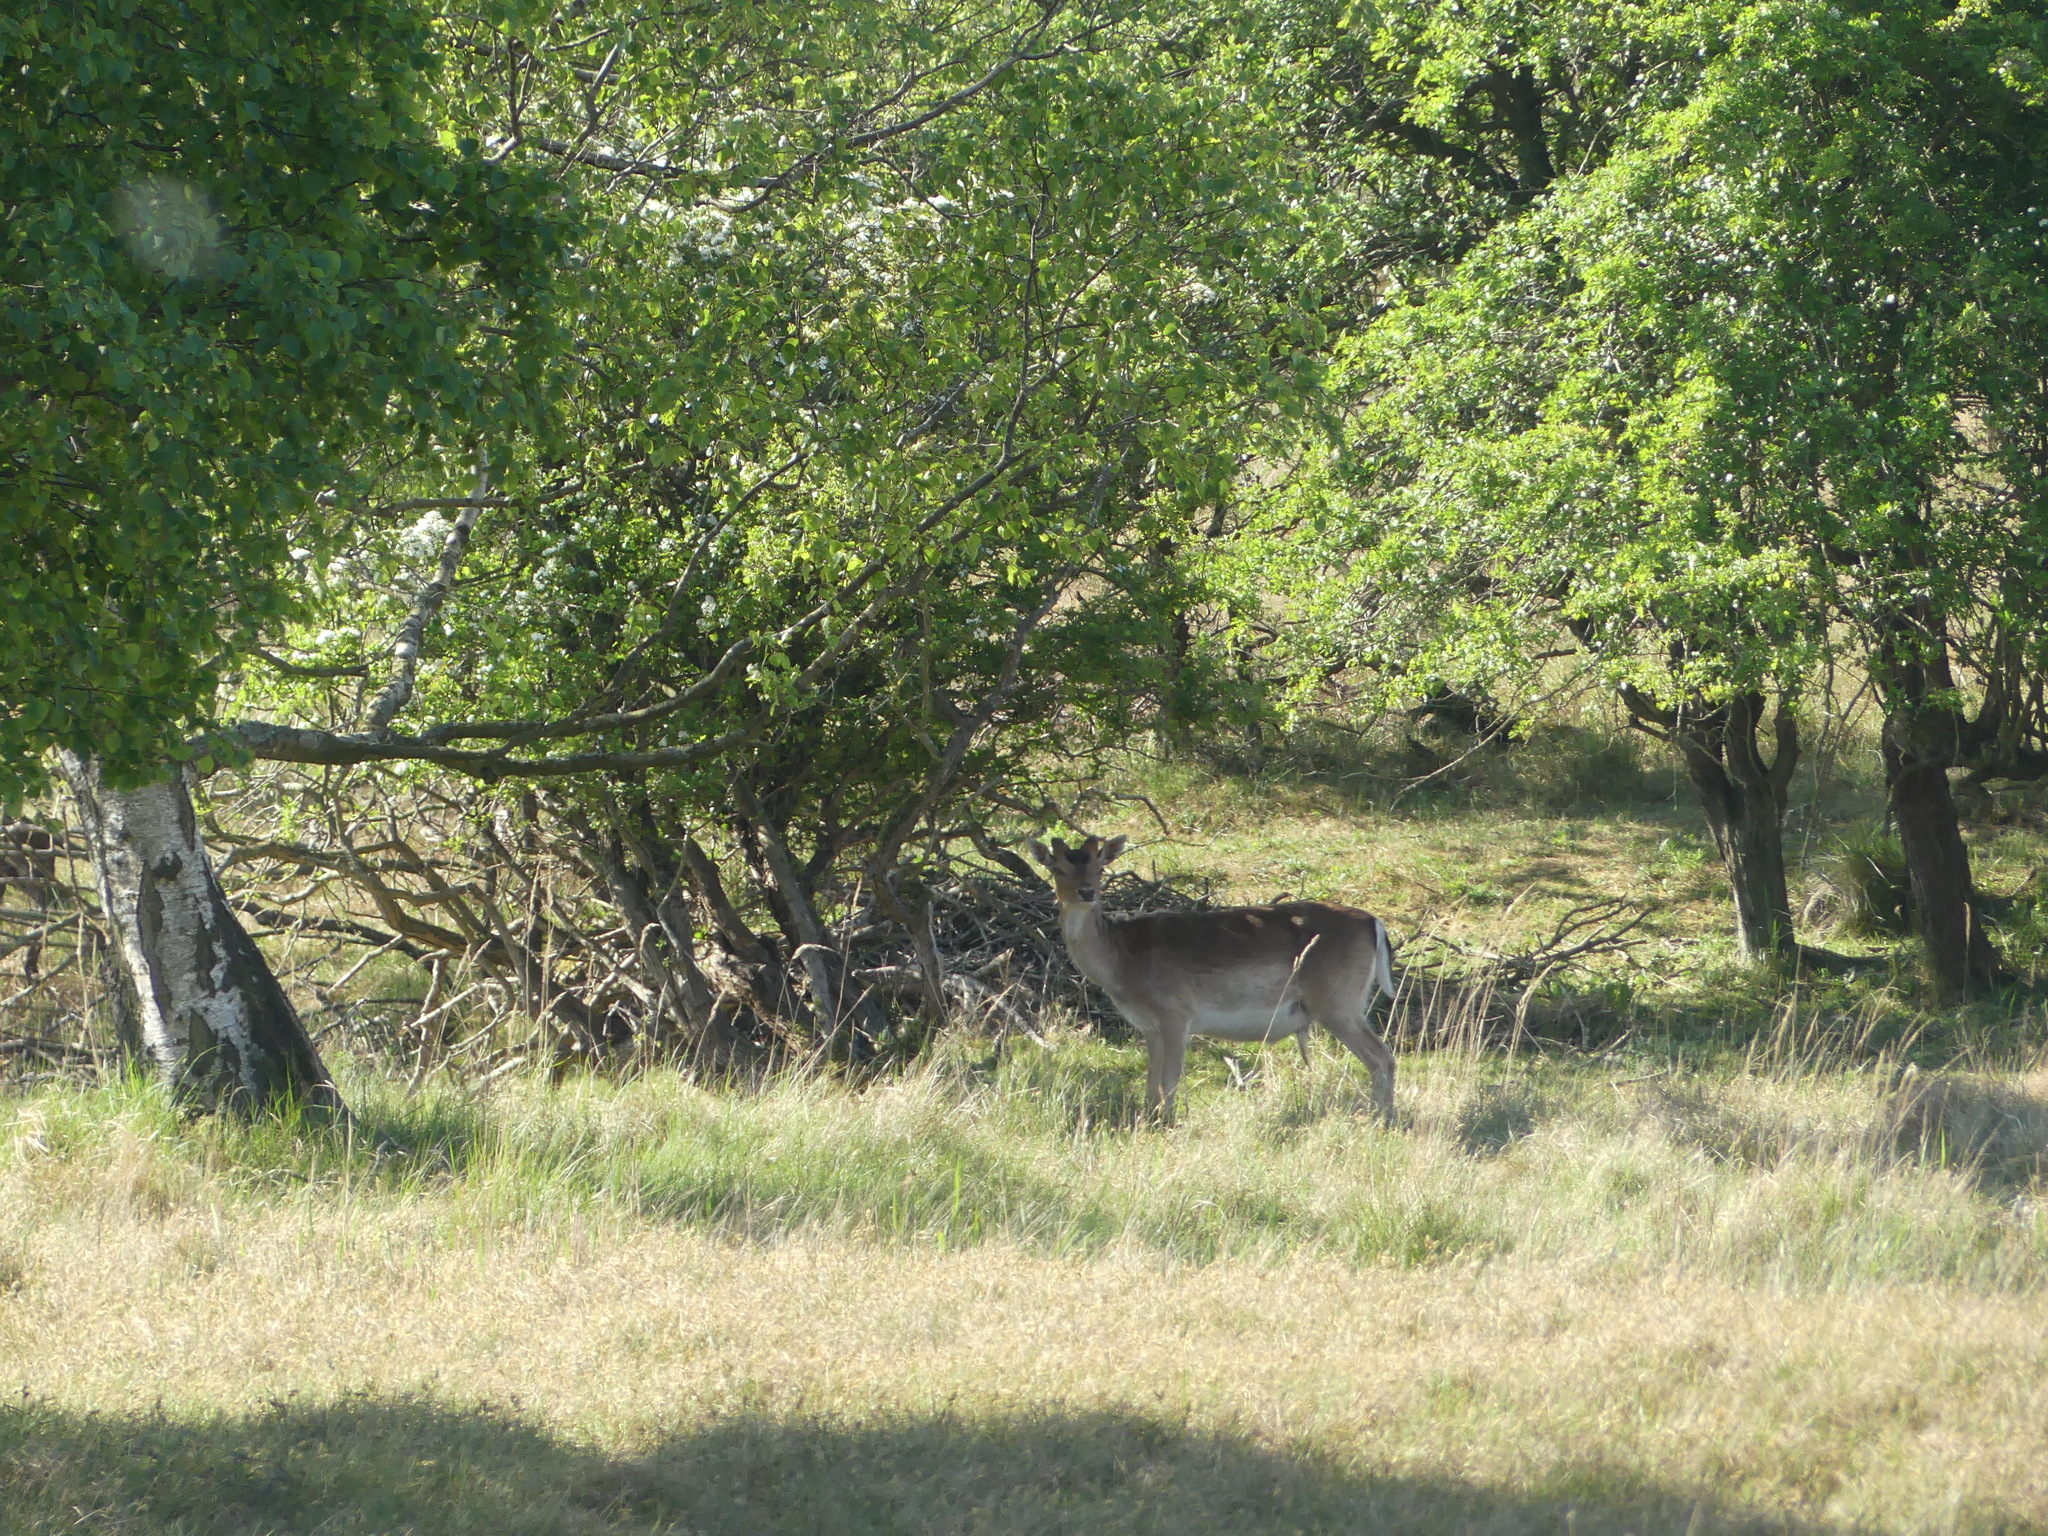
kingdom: Animalia
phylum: Chordata
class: Mammalia
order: Artiodactyla
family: Cervidae
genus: Dama
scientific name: Dama dama
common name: Fallow deer
